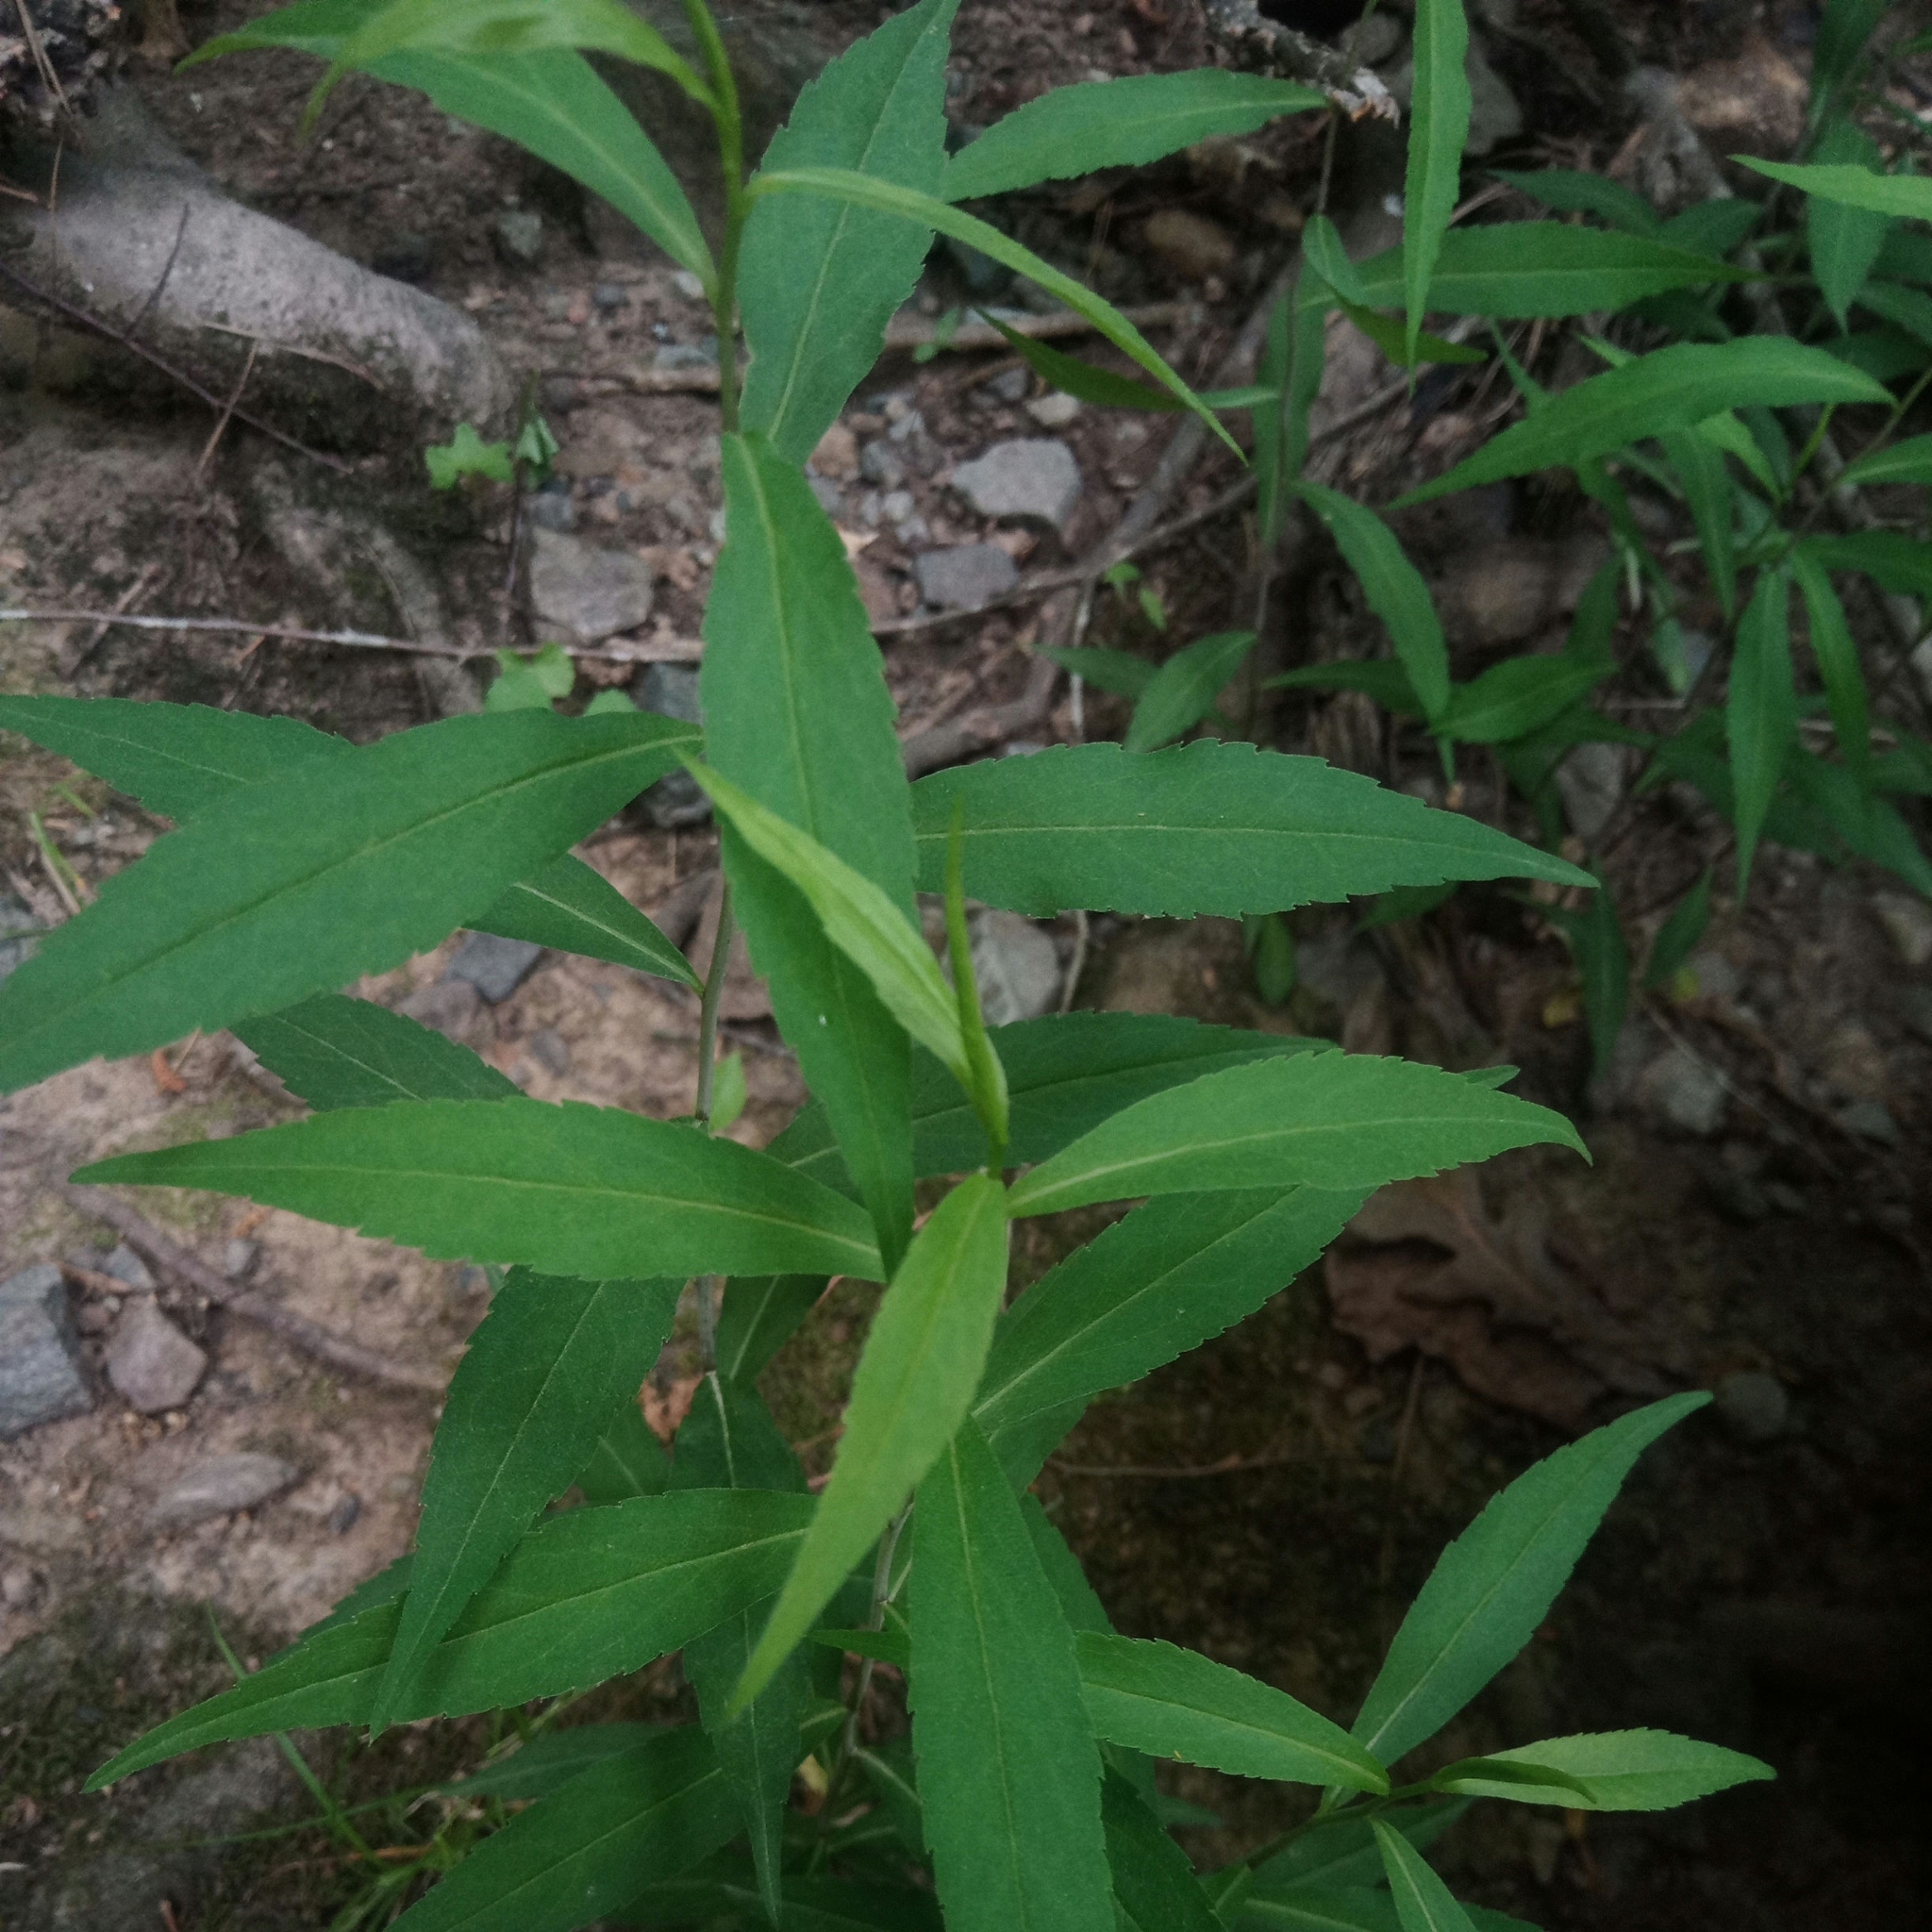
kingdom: Plantae
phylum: Tracheophyta
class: Magnoliopsida
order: Asterales
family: Asteraceae
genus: Solidago
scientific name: Solidago
